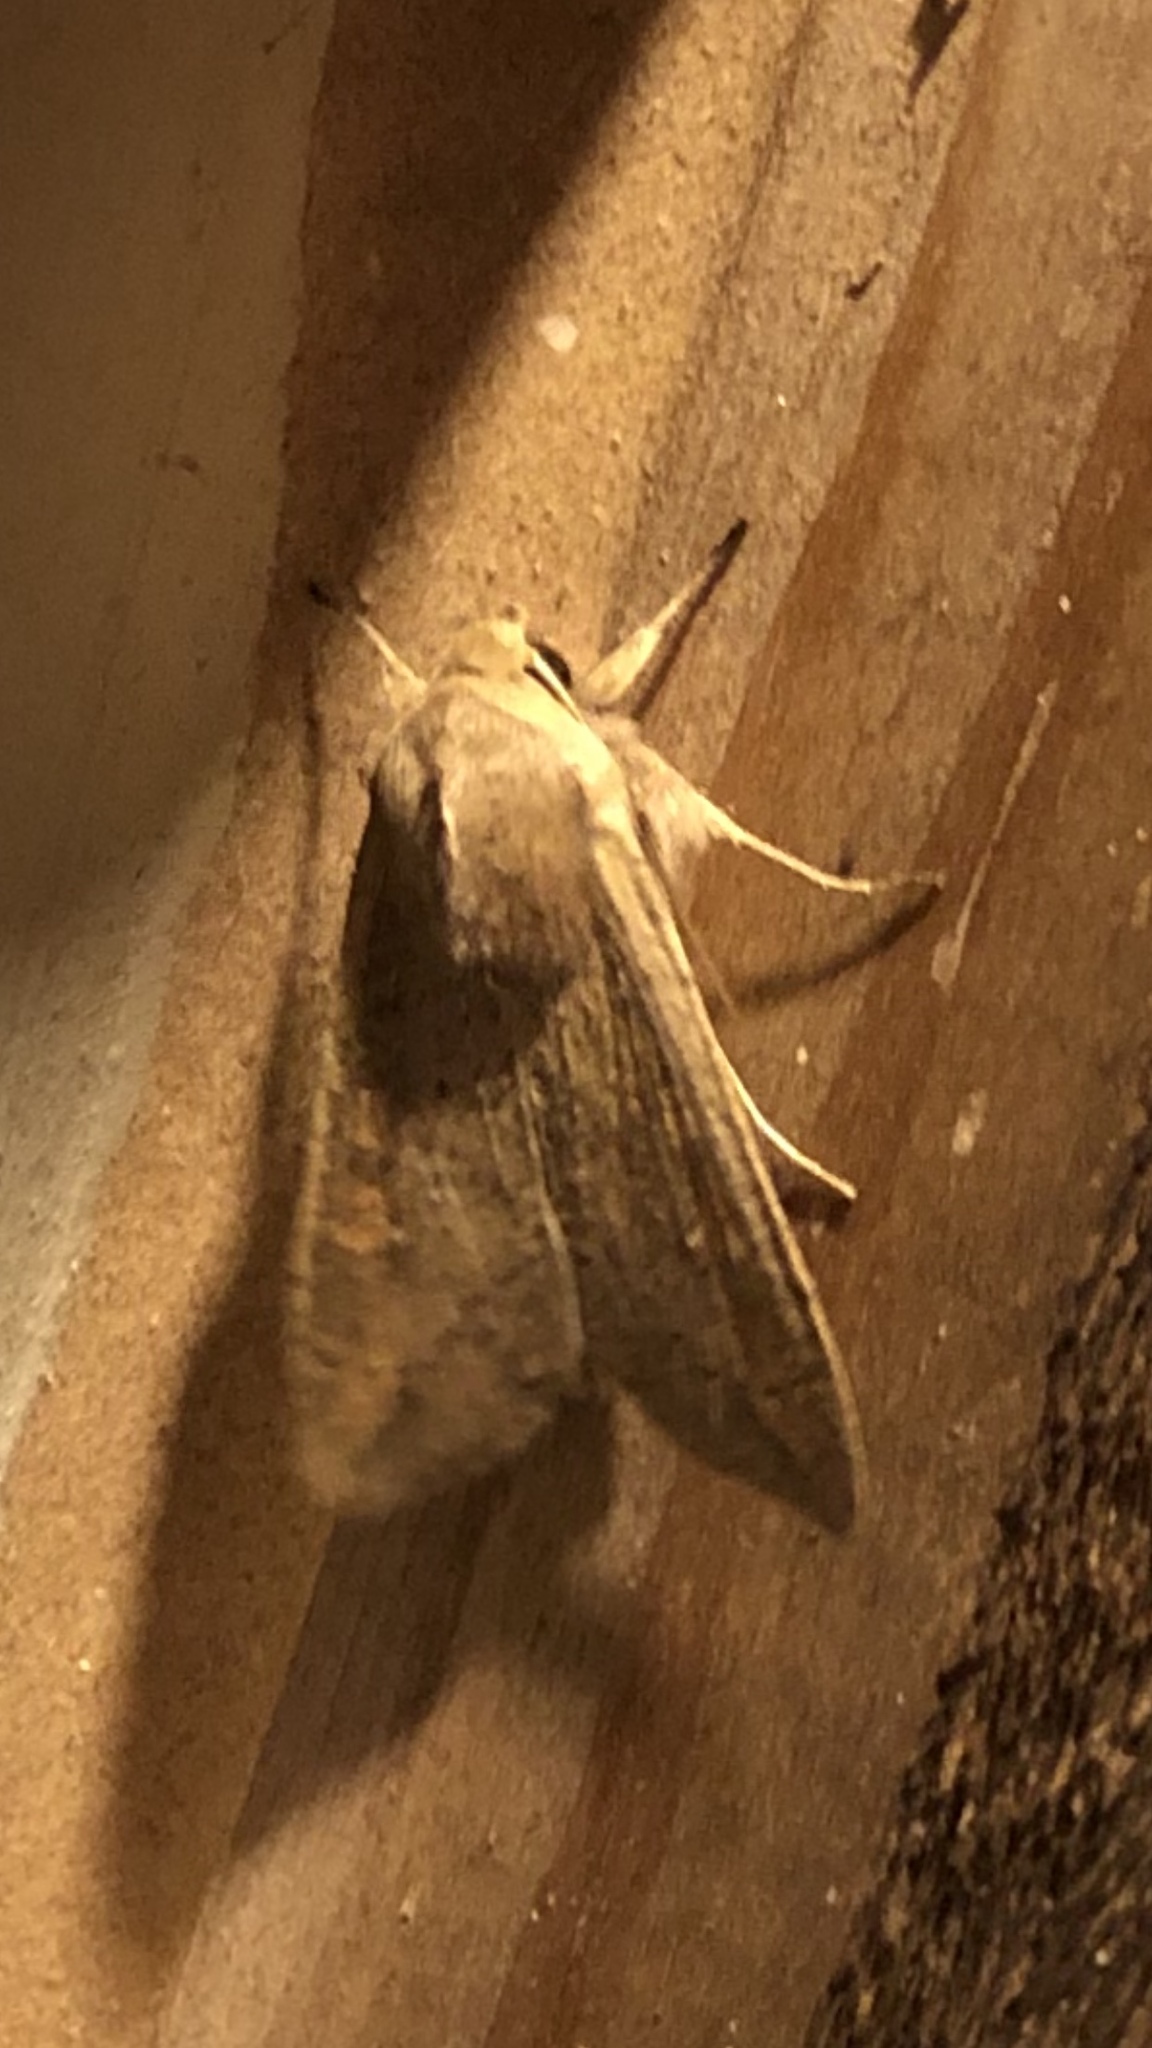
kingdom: Animalia
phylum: Arthropoda
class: Insecta
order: Lepidoptera
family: Noctuidae
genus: Mythimna
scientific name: Mythimna unipuncta
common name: White-speck
